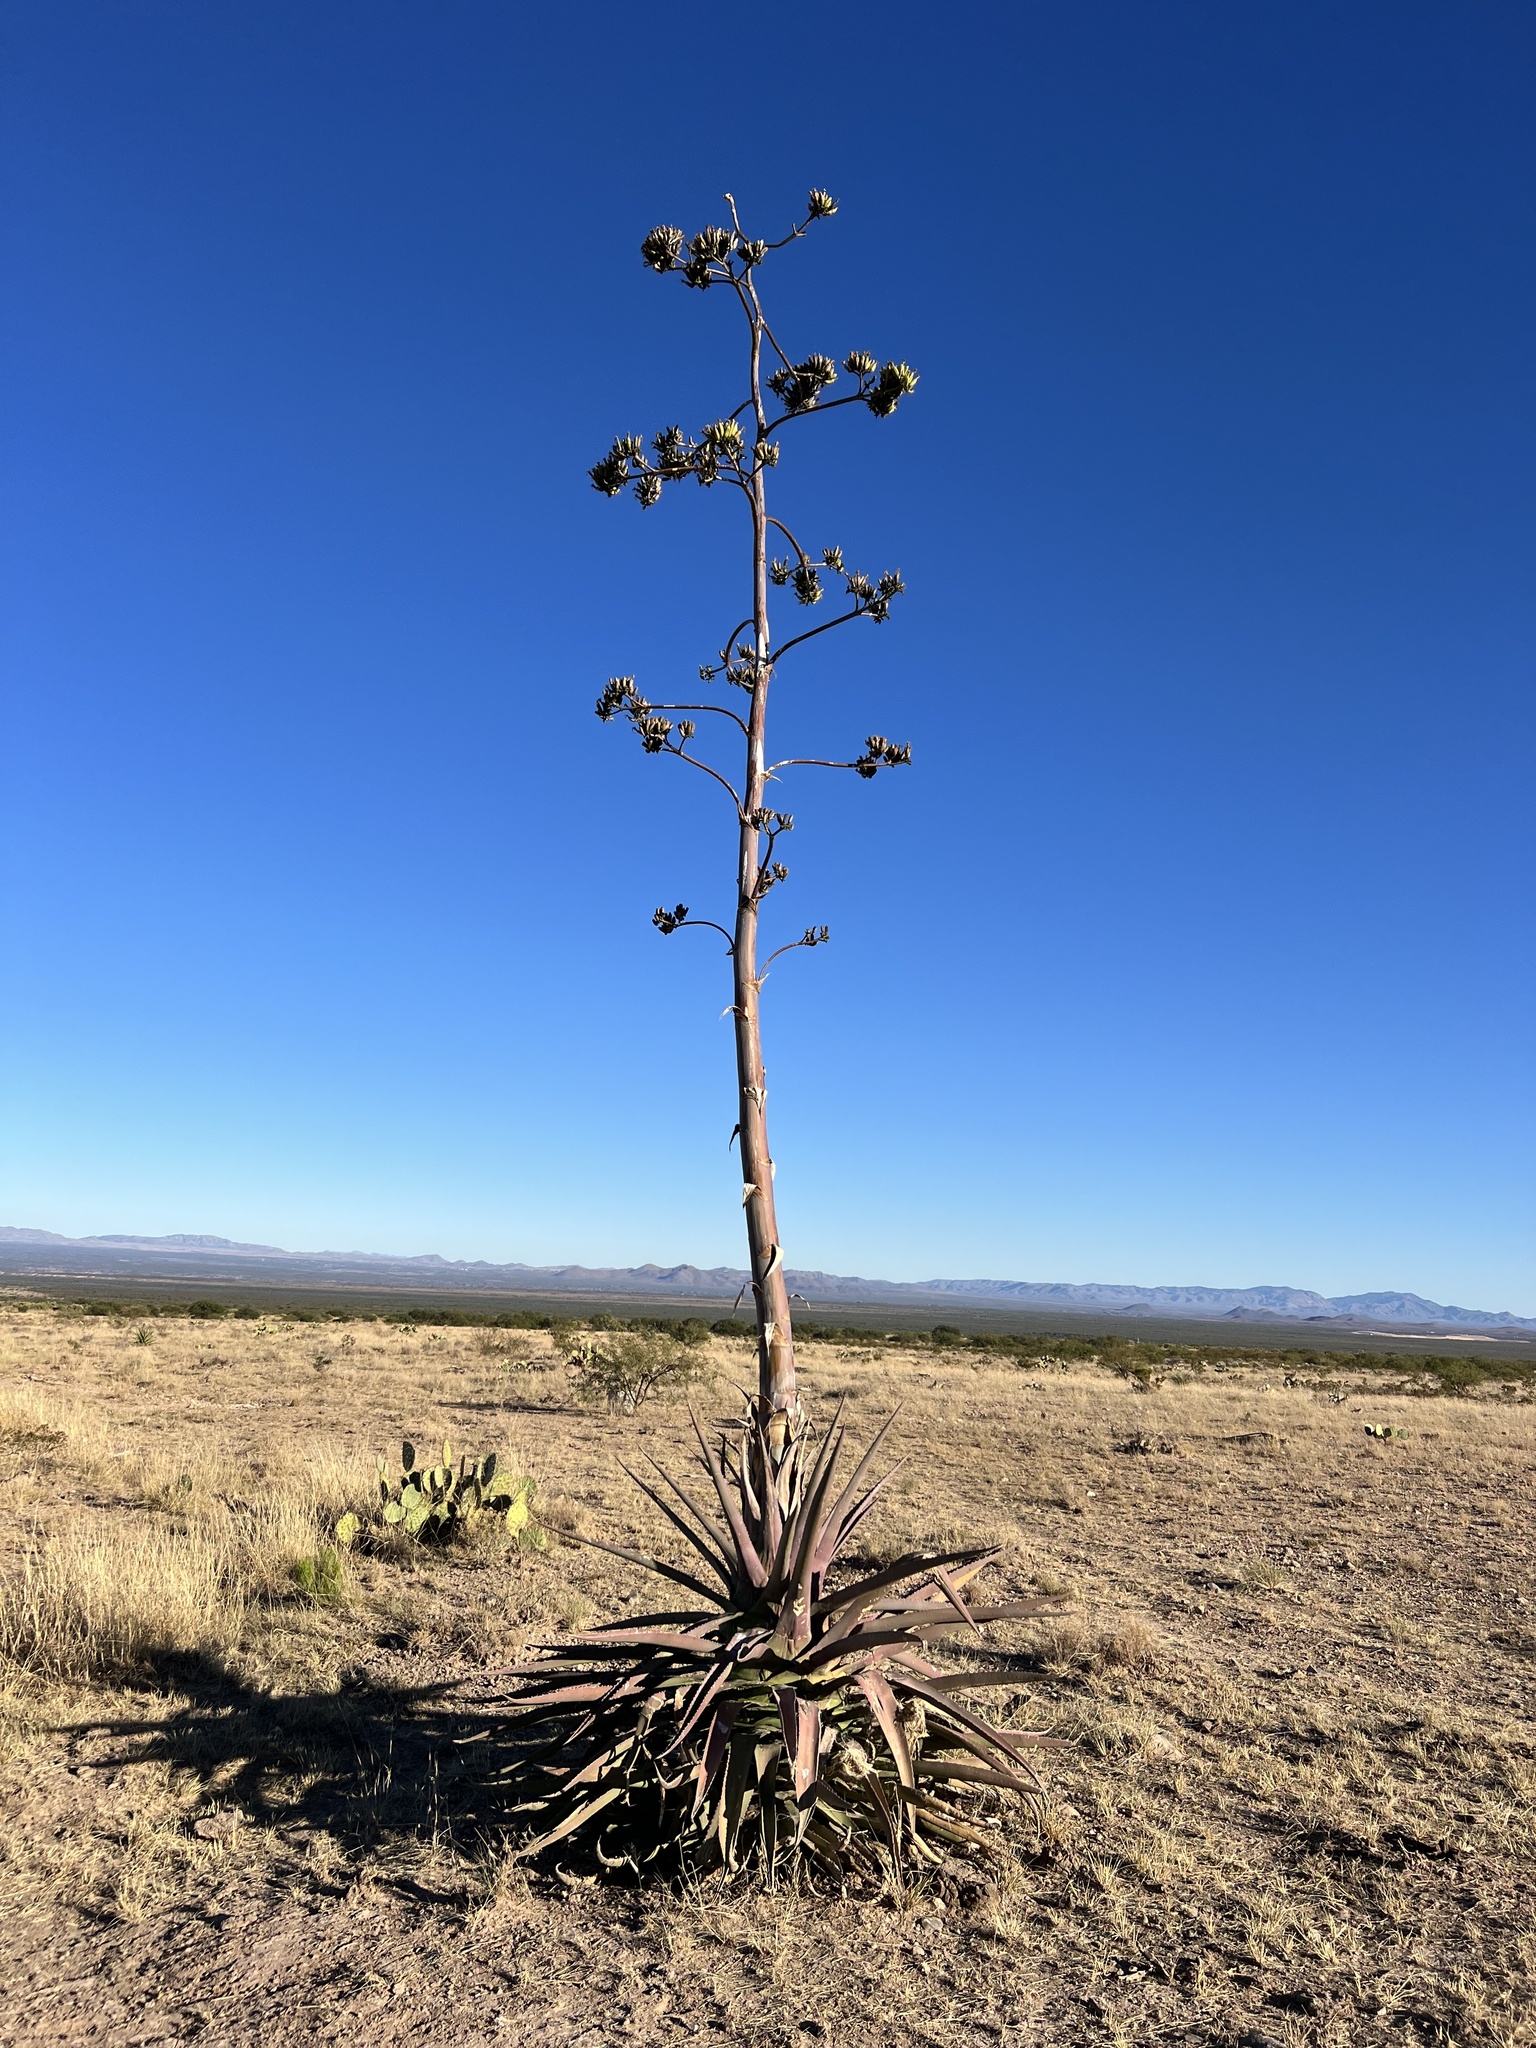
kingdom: Plantae
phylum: Tracheophyta
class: Liliopsida
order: Asparagales
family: Asparagaceae
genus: Agave
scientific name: Agave palmeri
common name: Palmer agave
